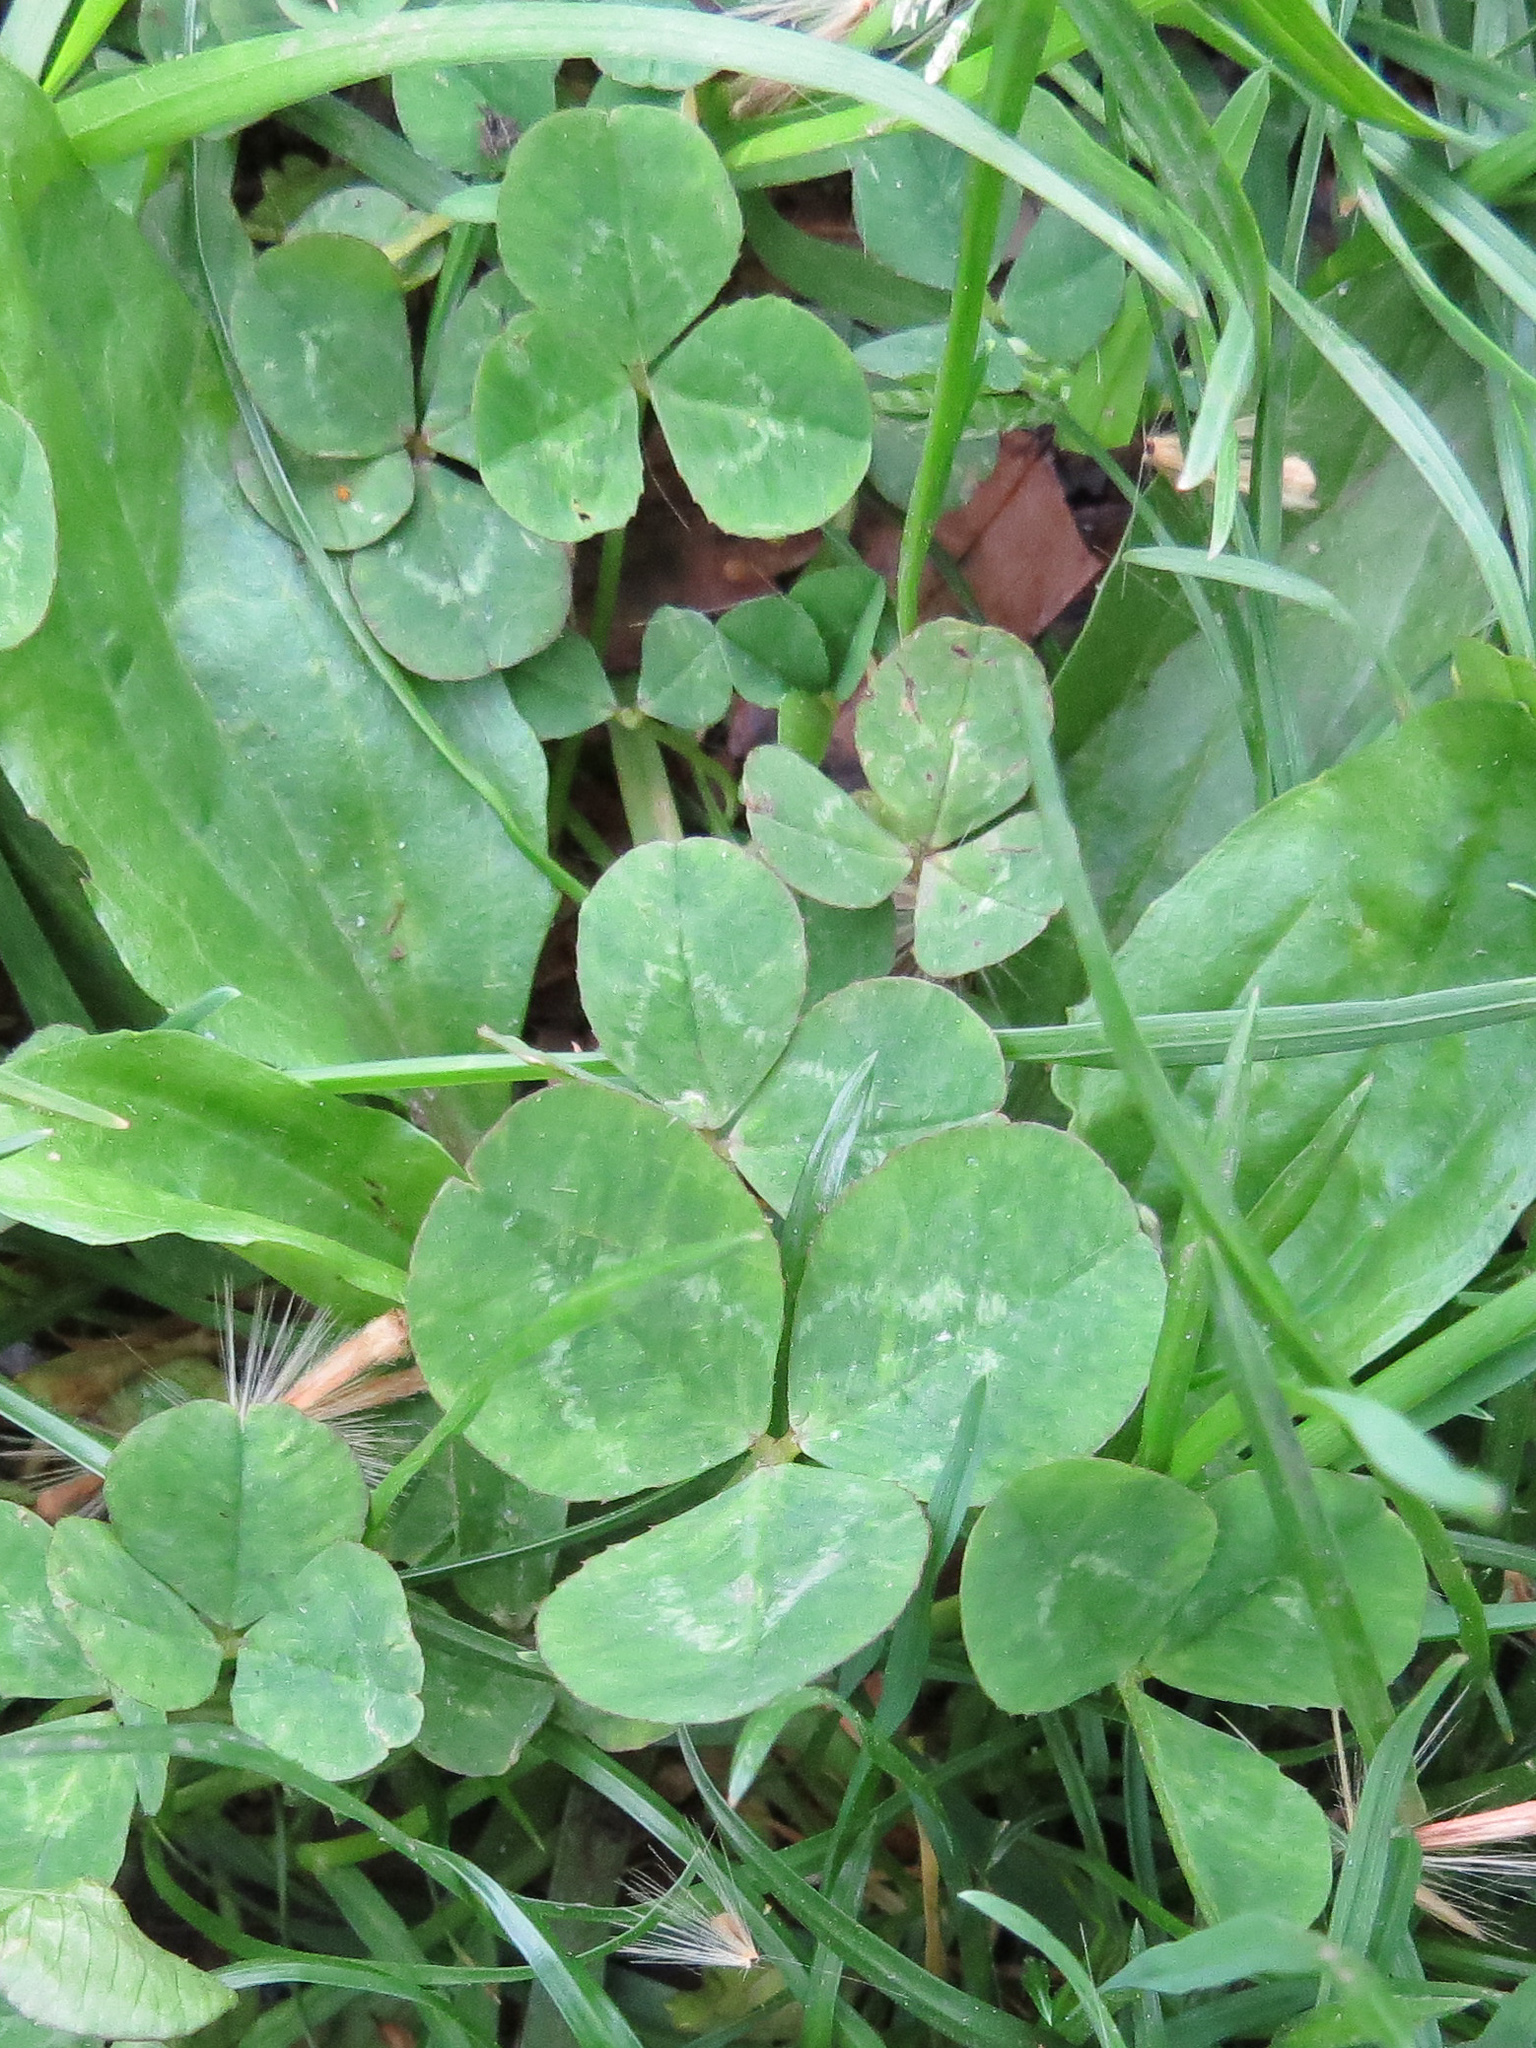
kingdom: Plantae
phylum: Tracheophyta
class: Magnoliopsida
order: Fabales
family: Fabaceae
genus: Trifolium
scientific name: Trifolium repens
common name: White clover
